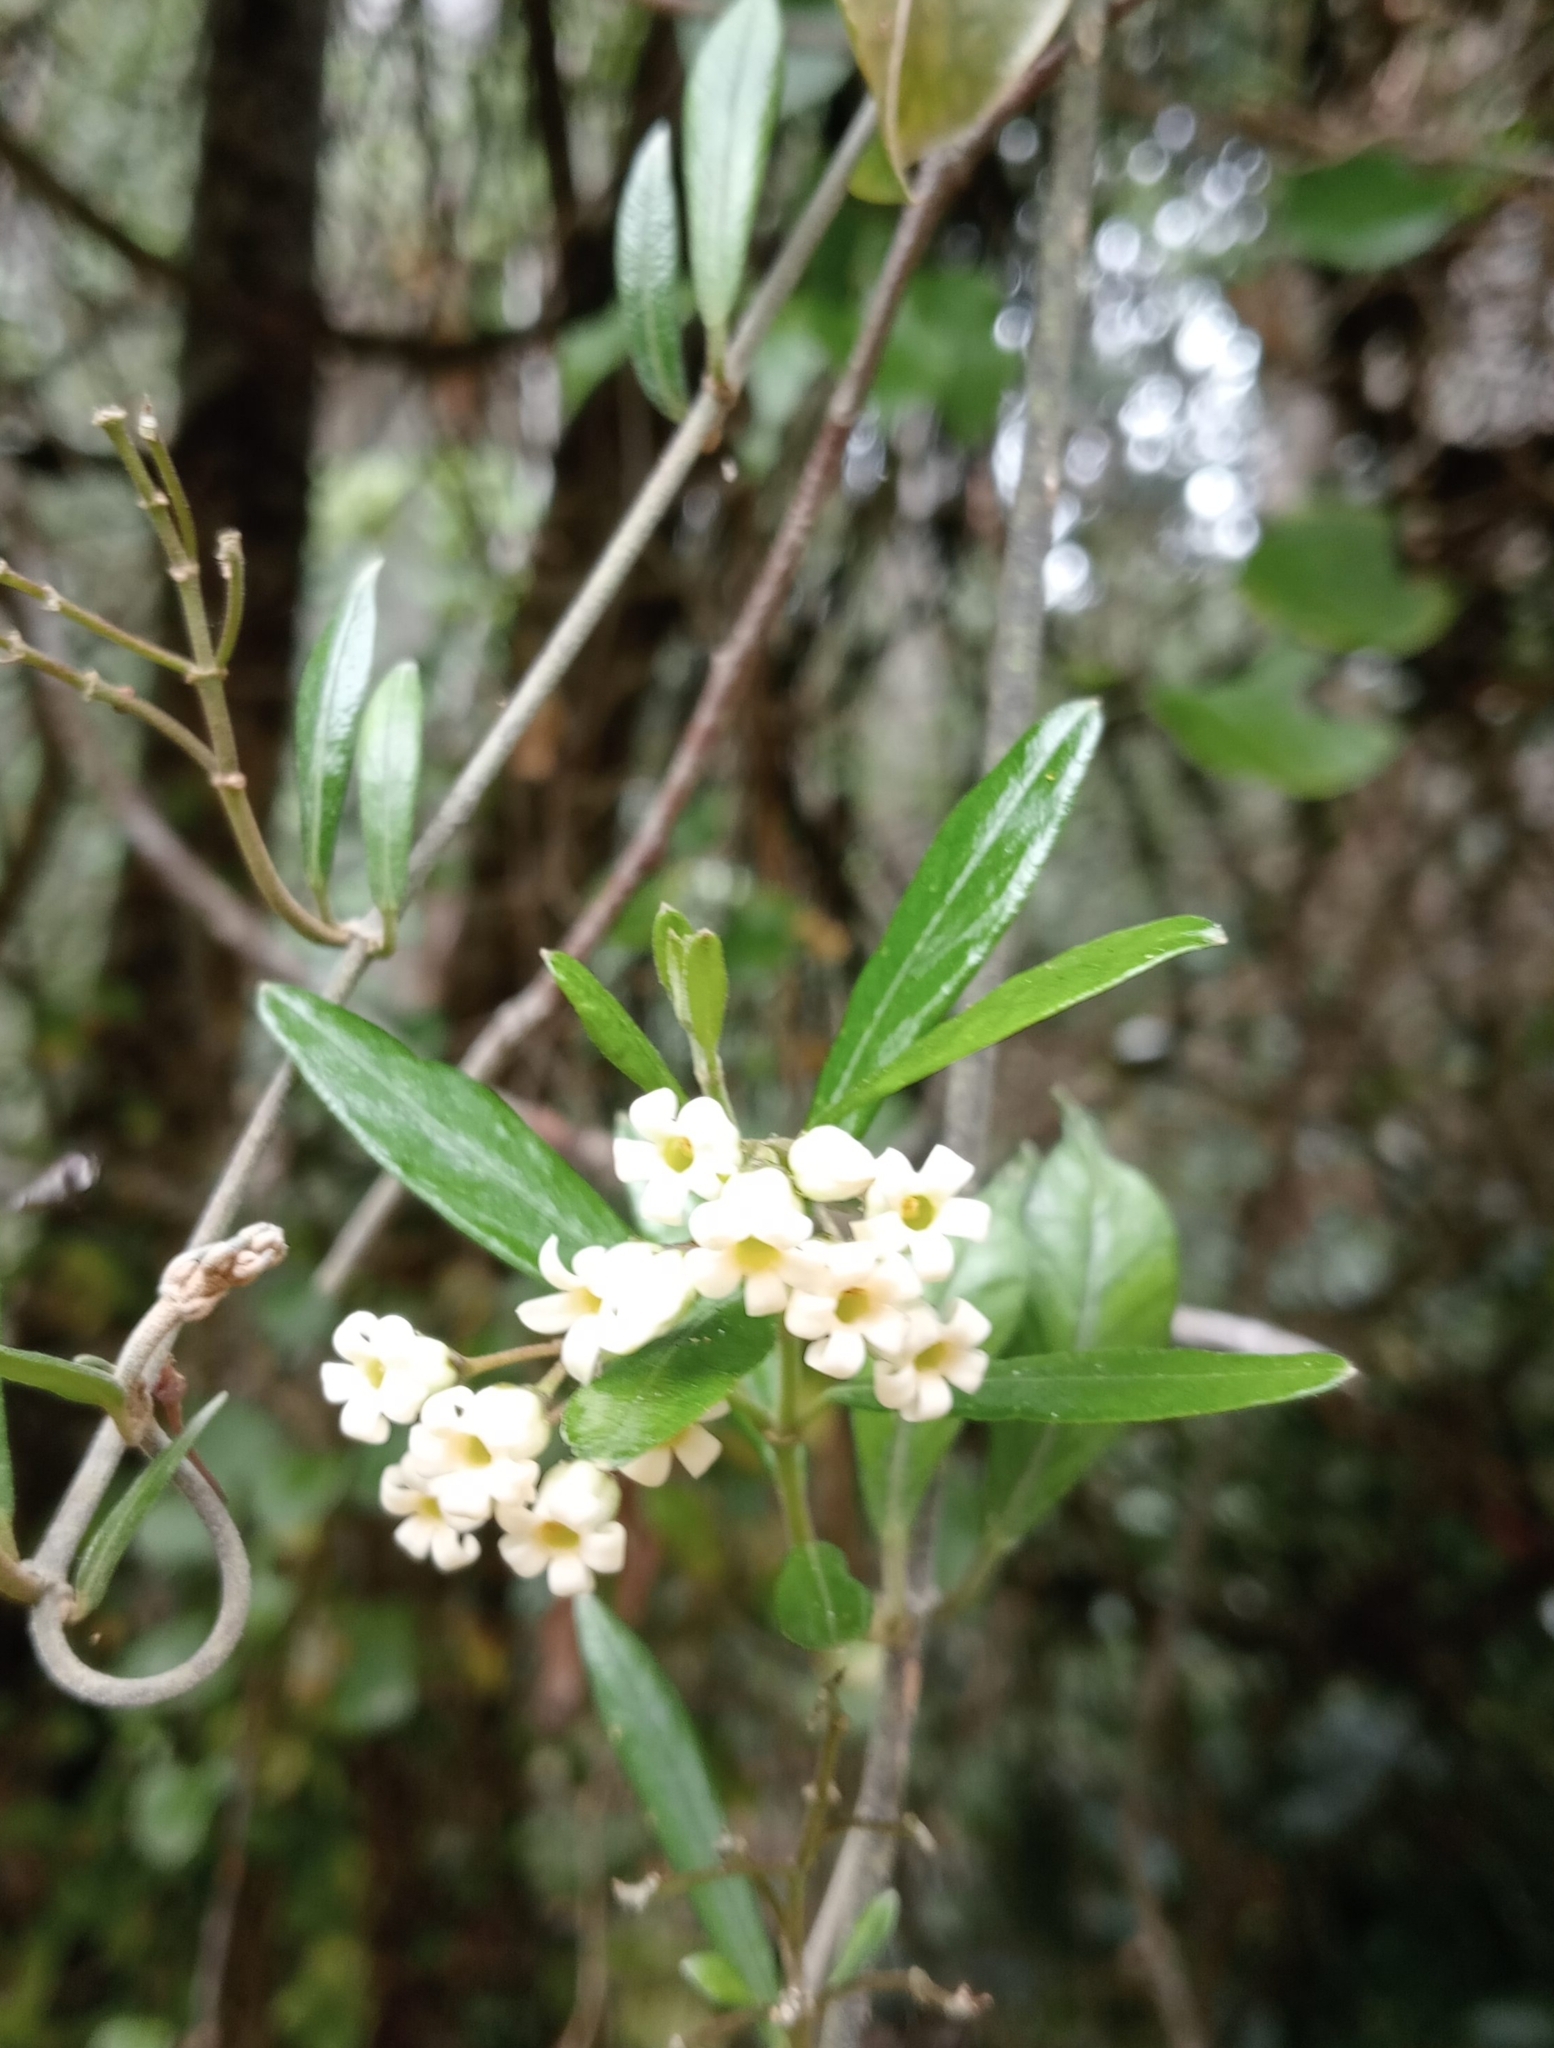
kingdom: Plantae
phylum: Tracheophyta
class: Magnoliopsida
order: Gentianales
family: Apocynaceae
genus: Parsonsia
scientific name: Parsonsia heterophylla
